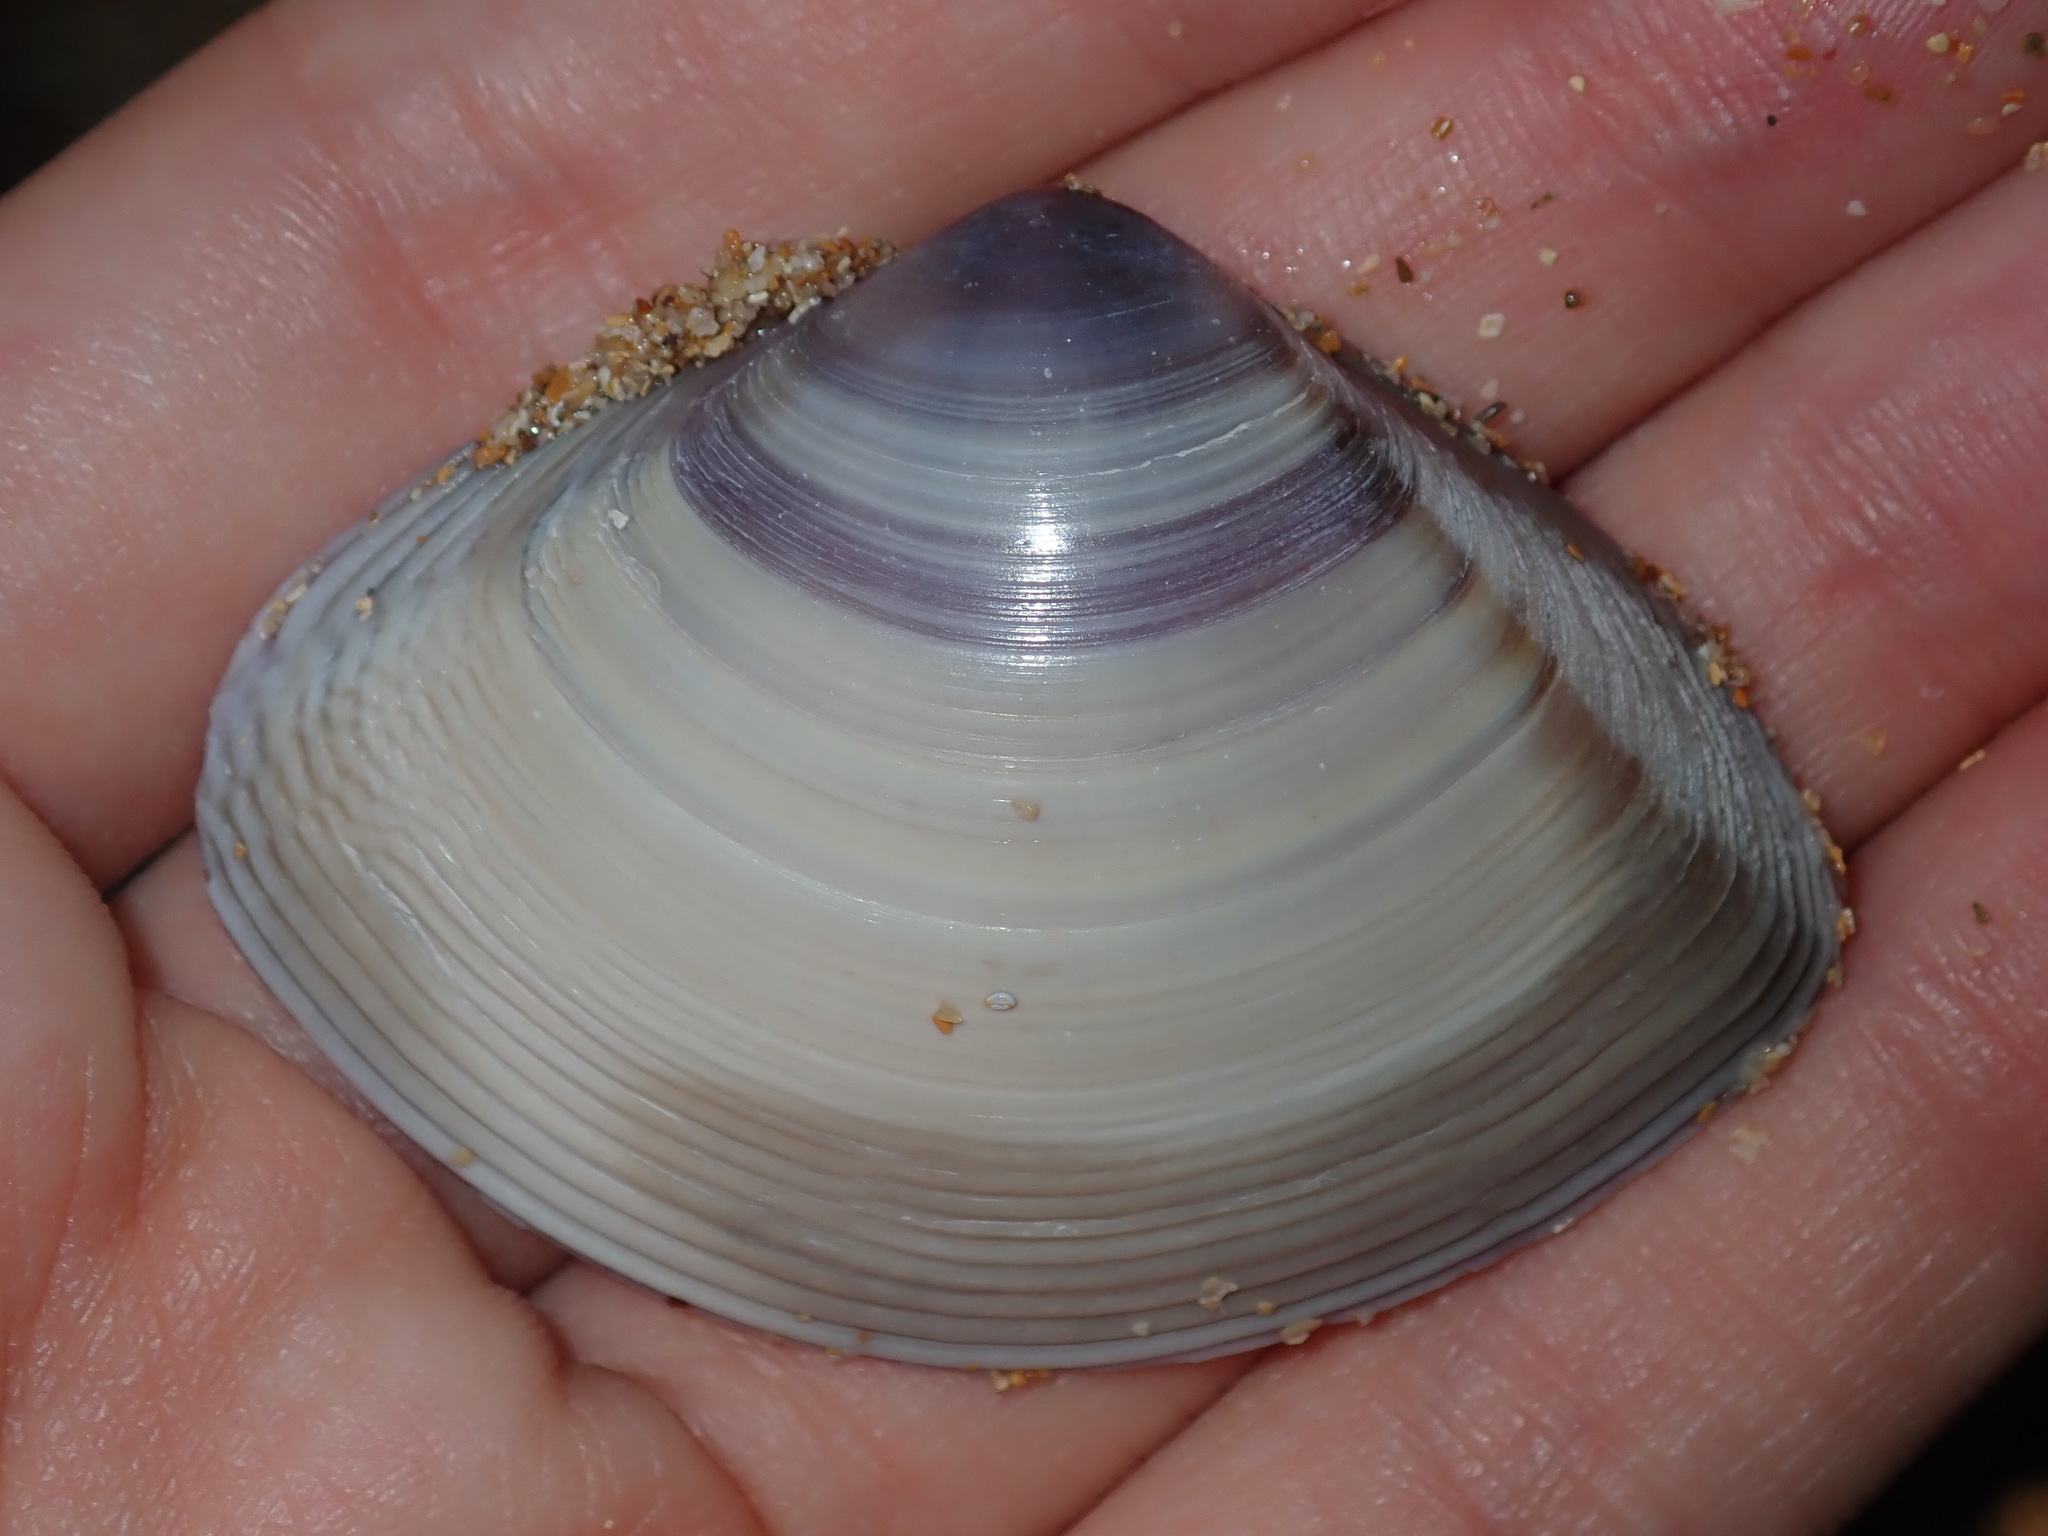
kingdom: Animalia
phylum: Mollusca
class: Bivalvia
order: Venerida
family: Mactridae
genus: Austromactra
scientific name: Austromactra contraria
